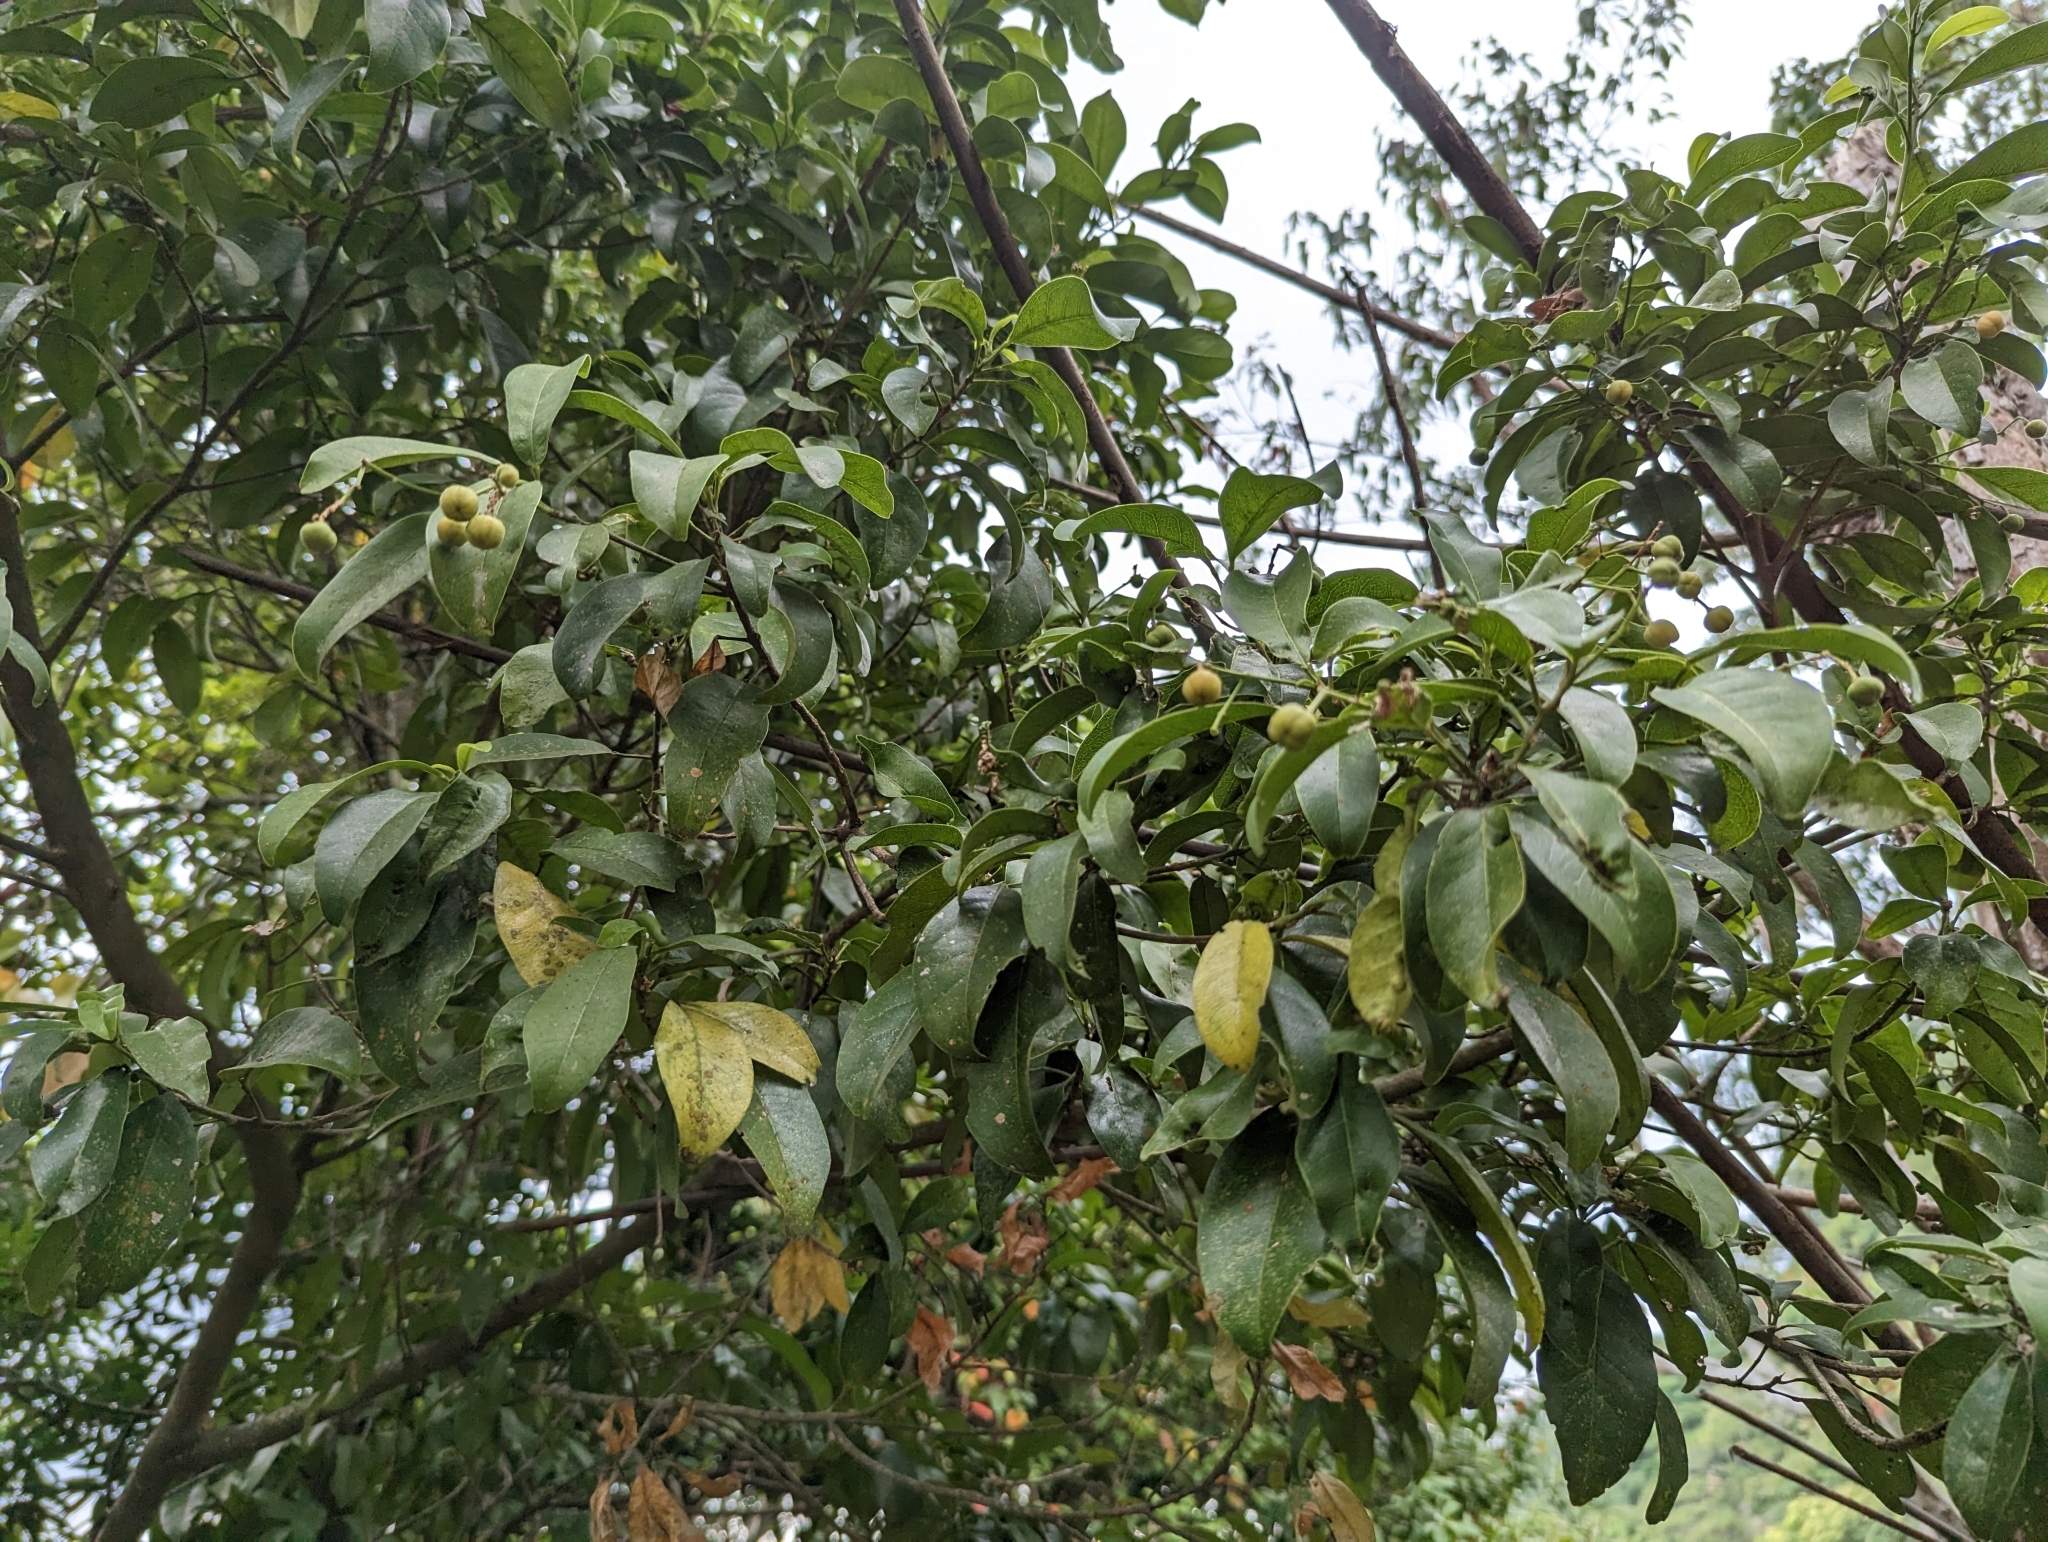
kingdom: Plantae
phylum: Tracheophyta
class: Magnoliopsida
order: Sapindales
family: Rutaceae
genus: Acronychia
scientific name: Acronychia pedunculata
